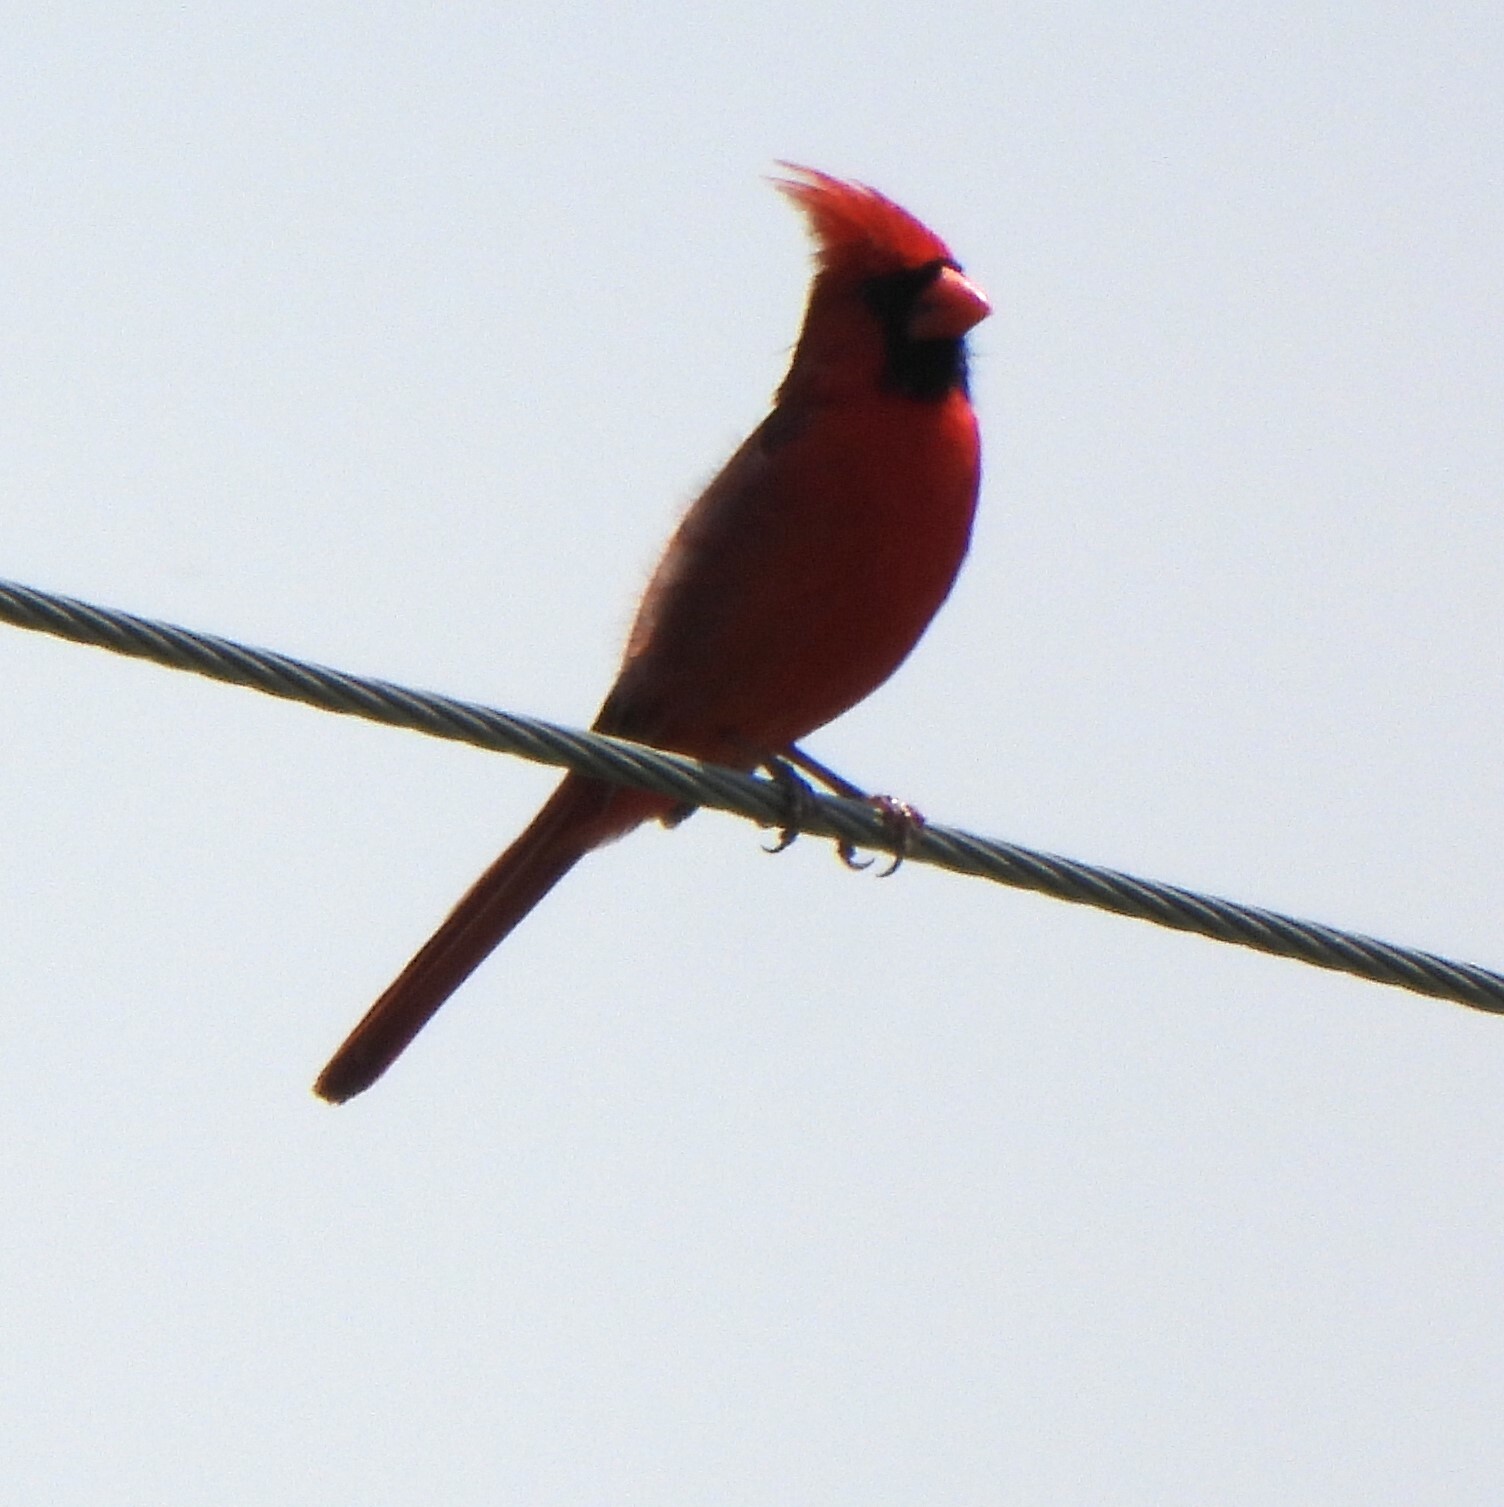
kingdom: Animalia
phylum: Chordata
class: Aves
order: Passeriformes
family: Cardinalidae
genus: Cardinalis
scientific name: Cardinalis cardinalis
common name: Northern cardinal
